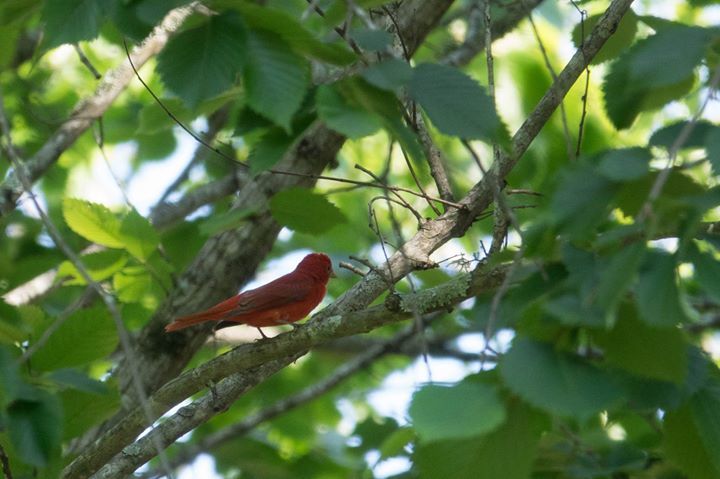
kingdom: Animalia
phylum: Chordata
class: Aves
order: Passeriformes
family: Cardinalidae
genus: Piranga
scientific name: Piranga rubra
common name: Summer tanager
